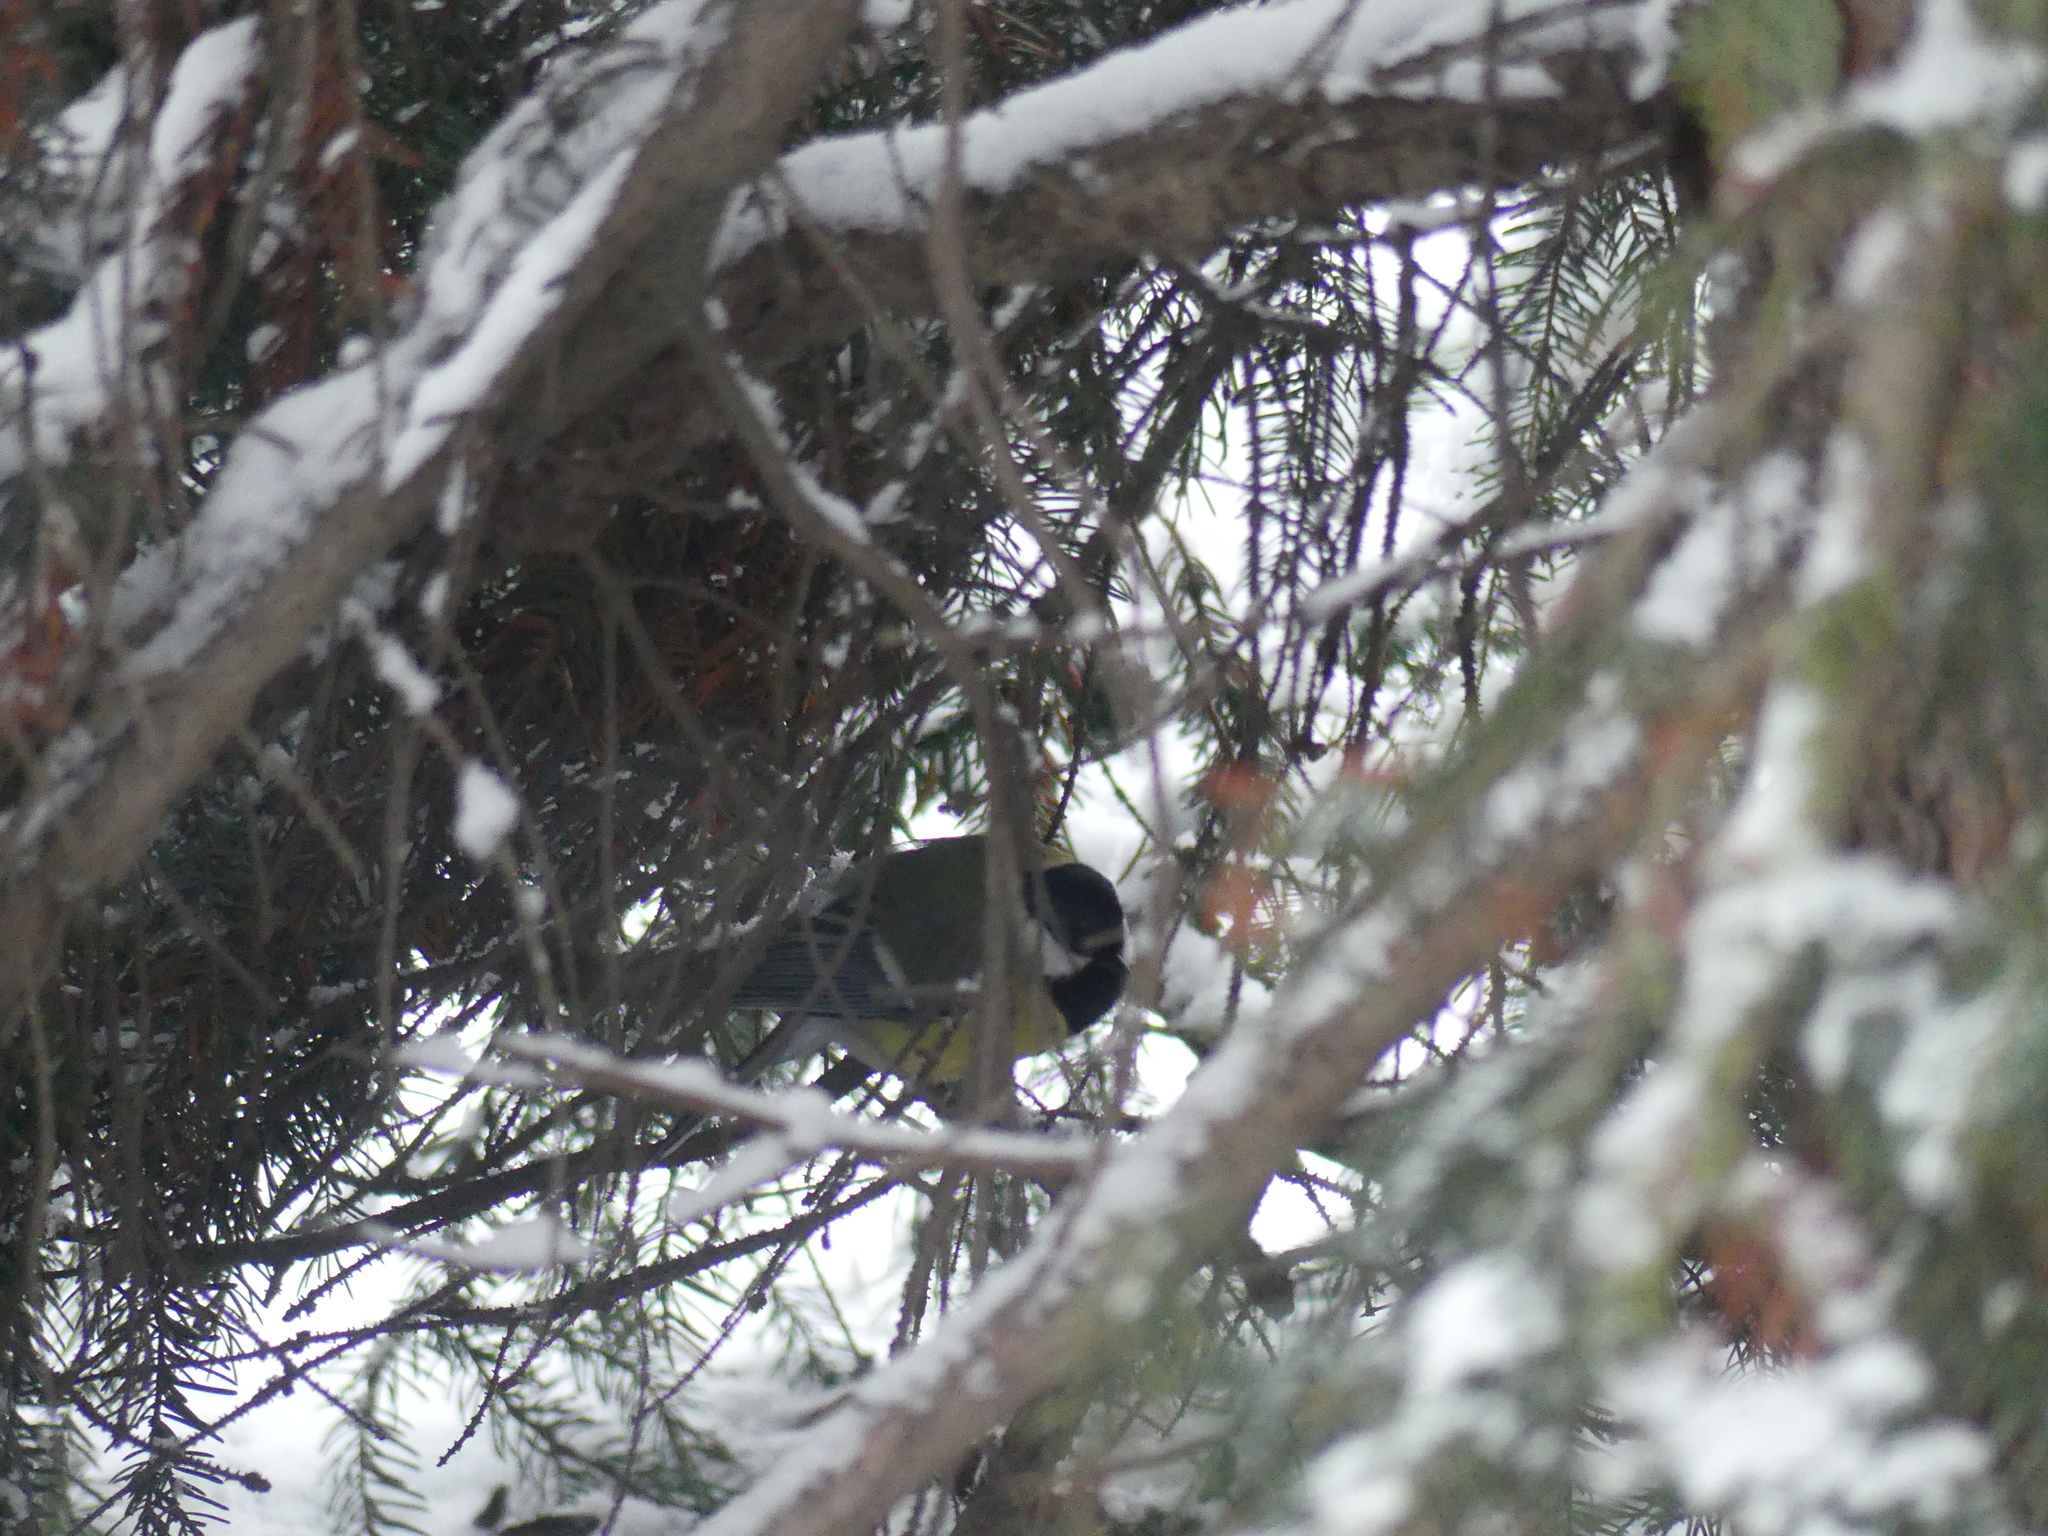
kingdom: Animalia
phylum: Chordata
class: Aves
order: Passeriformes
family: Paridae
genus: Parus
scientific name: Parus major
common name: Great tit
